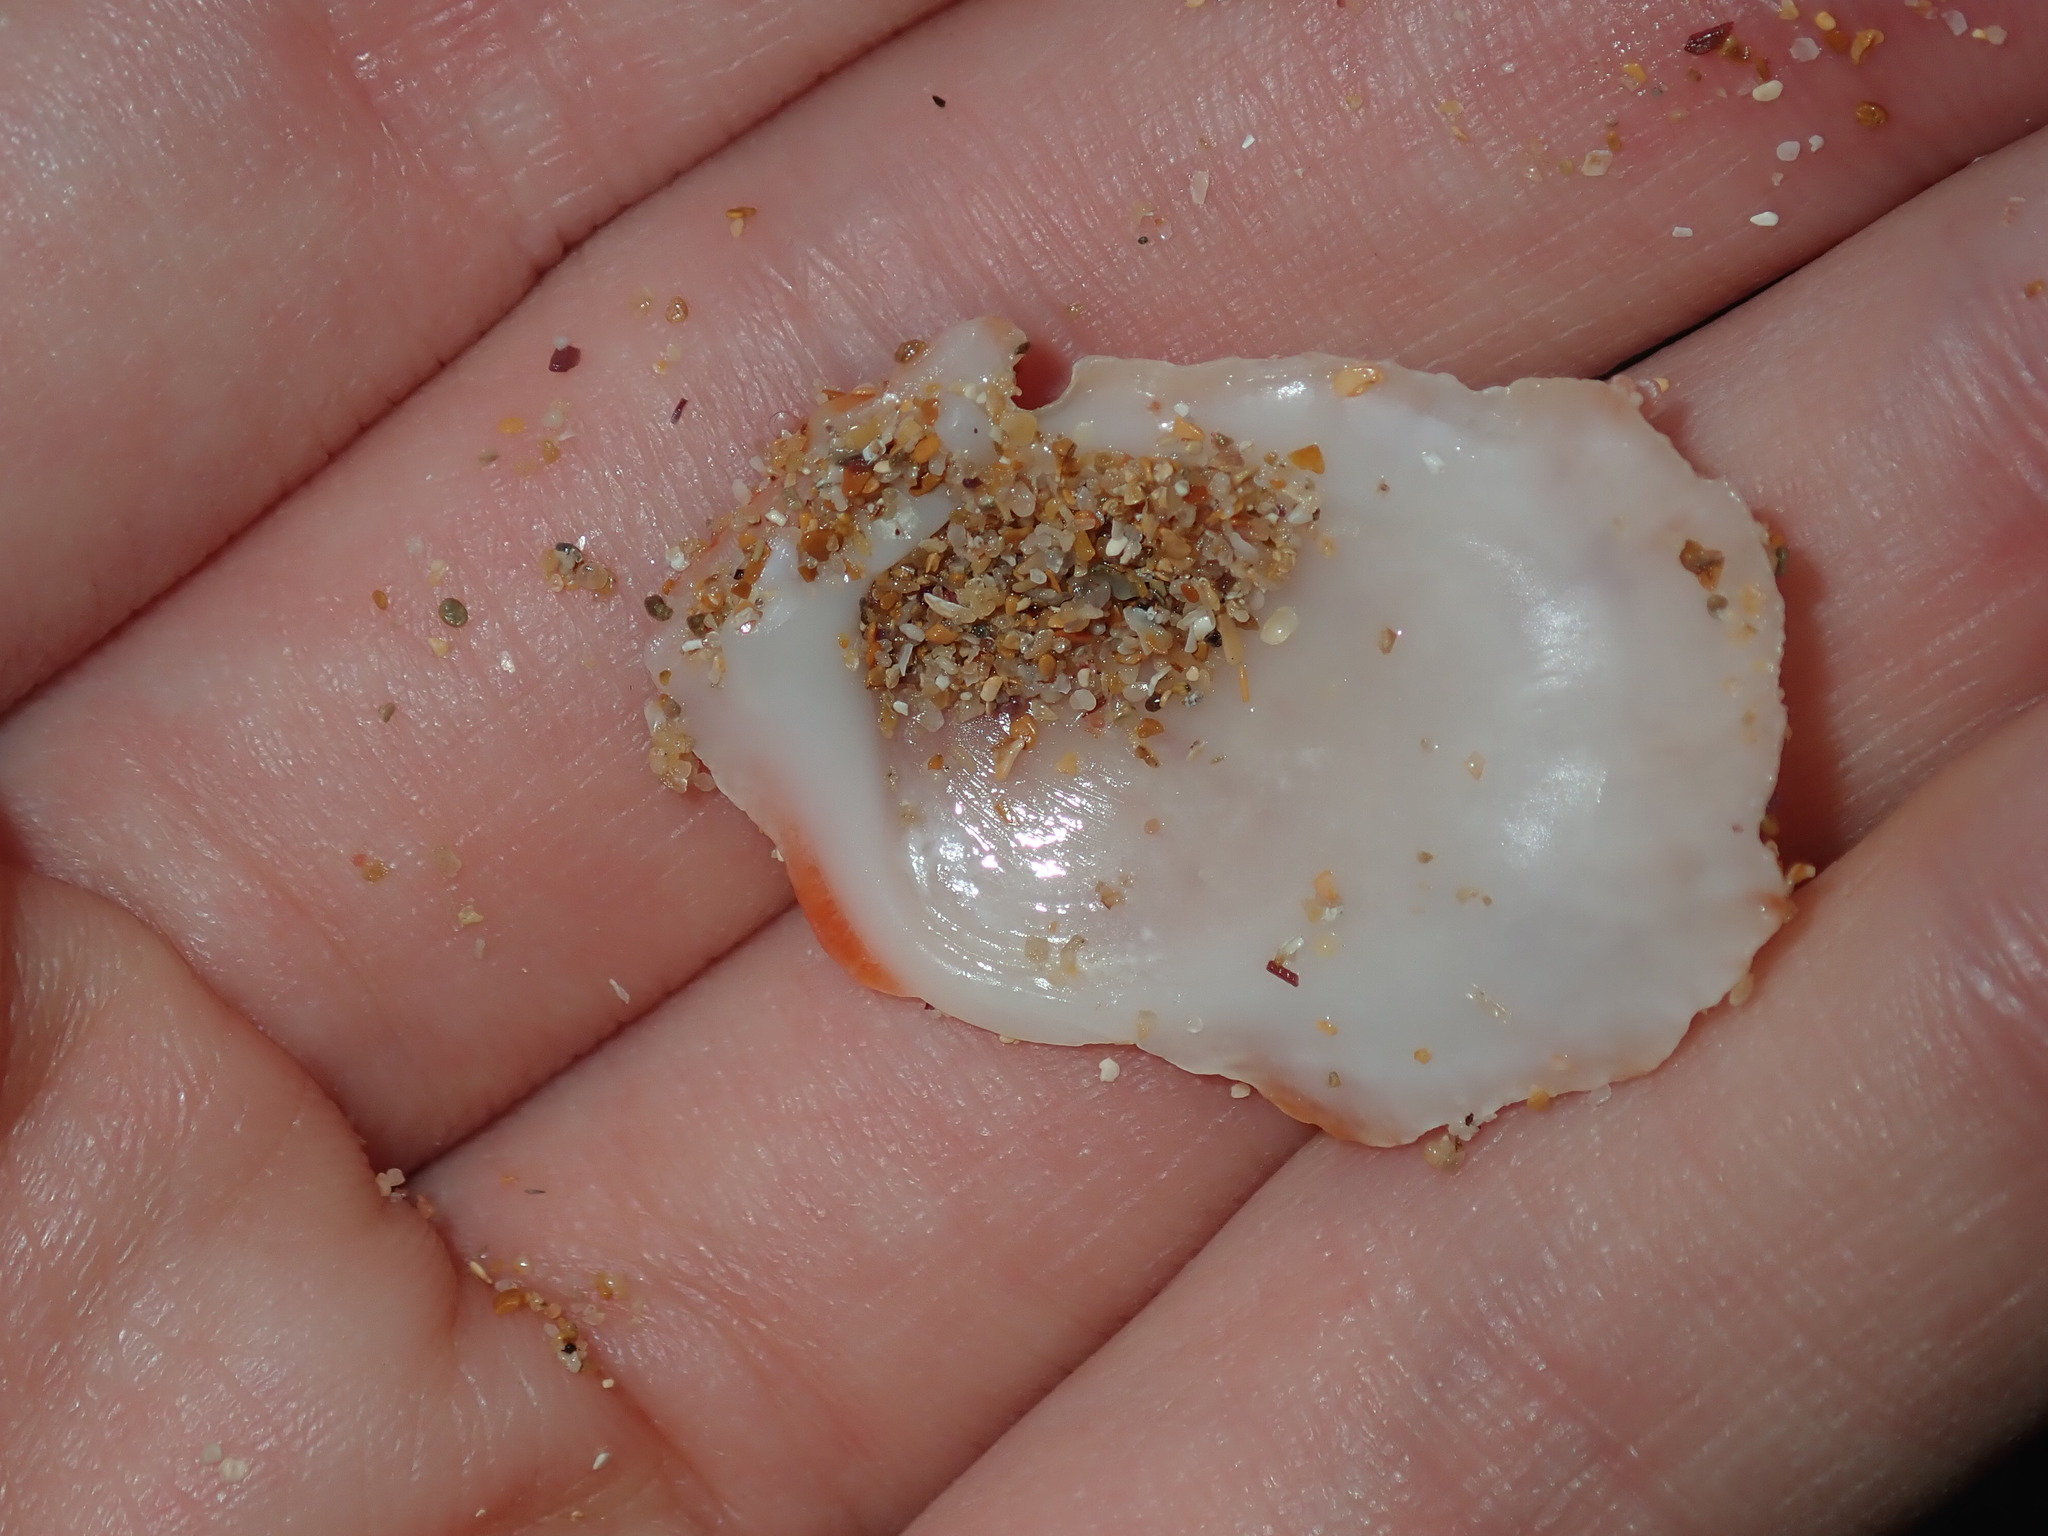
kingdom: Animalia
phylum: Mollusca
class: Bivalvia
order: Pectinida
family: Spondylidae
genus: Spondylus
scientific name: Spondylus tenellus
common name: Scarlet thorny oyster
